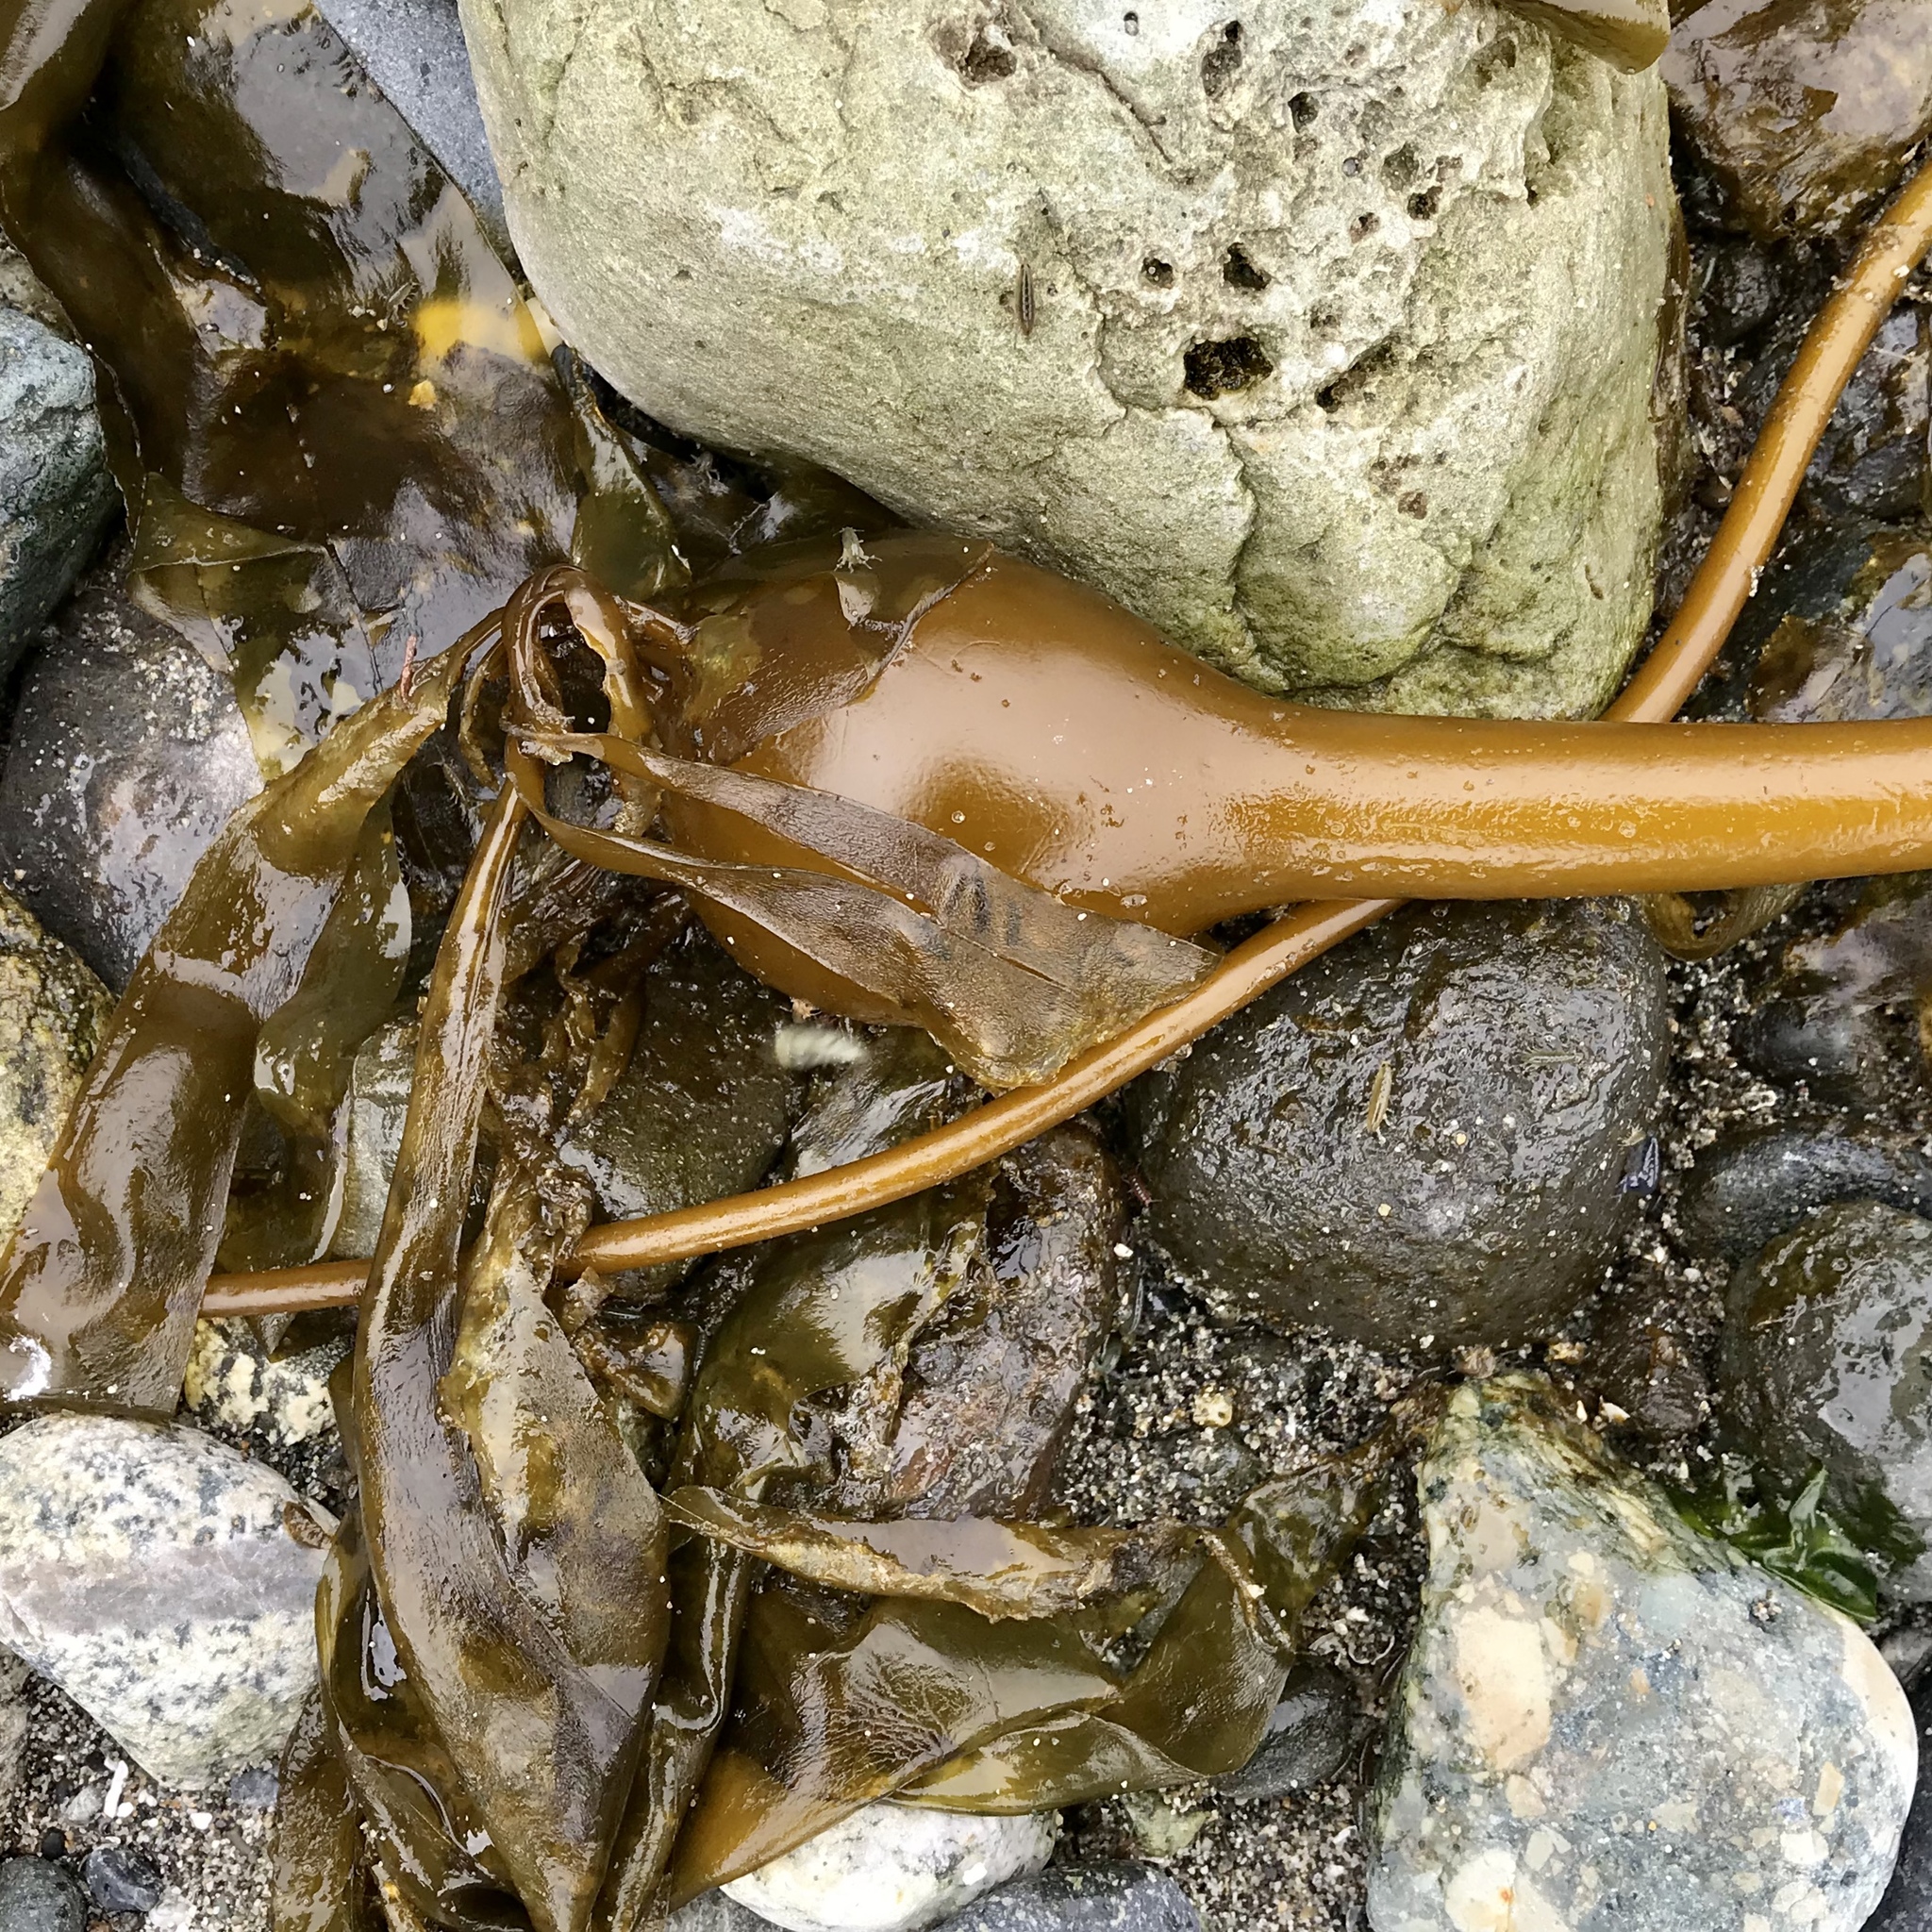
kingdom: Chromista
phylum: Ochrophyta
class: Phaeophyceae
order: Laminariales
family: Laminariaceae
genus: Nereocystis
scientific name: Nereocystis luetkeana
